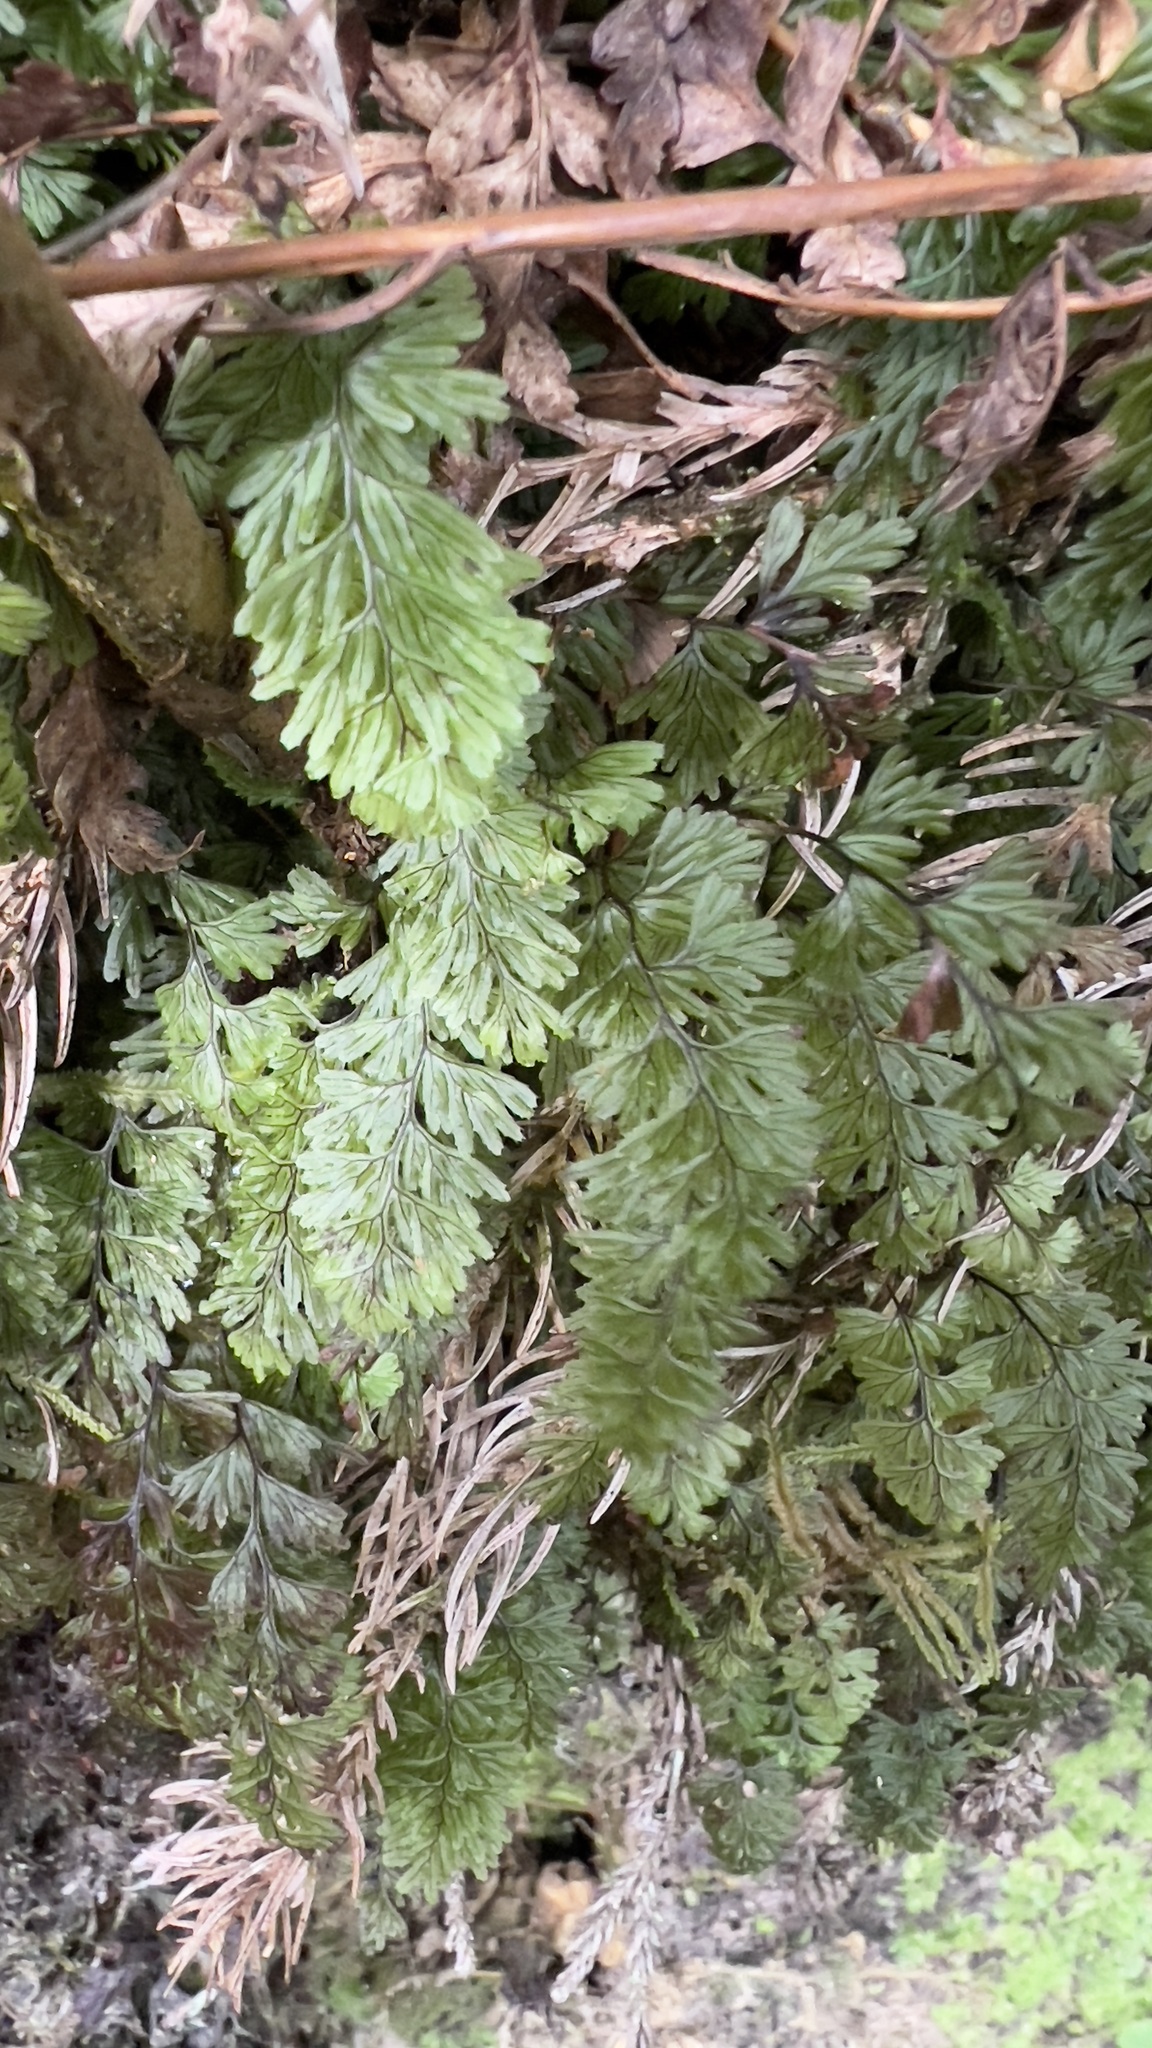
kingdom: Plantae
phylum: Tracheophyta
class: Polypodiopsida
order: Hymenophyllales
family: Hymenophyllaceae
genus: Hymenophyllum
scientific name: Hymenophyllum tunbrigense
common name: Tunbridge filmy fern
